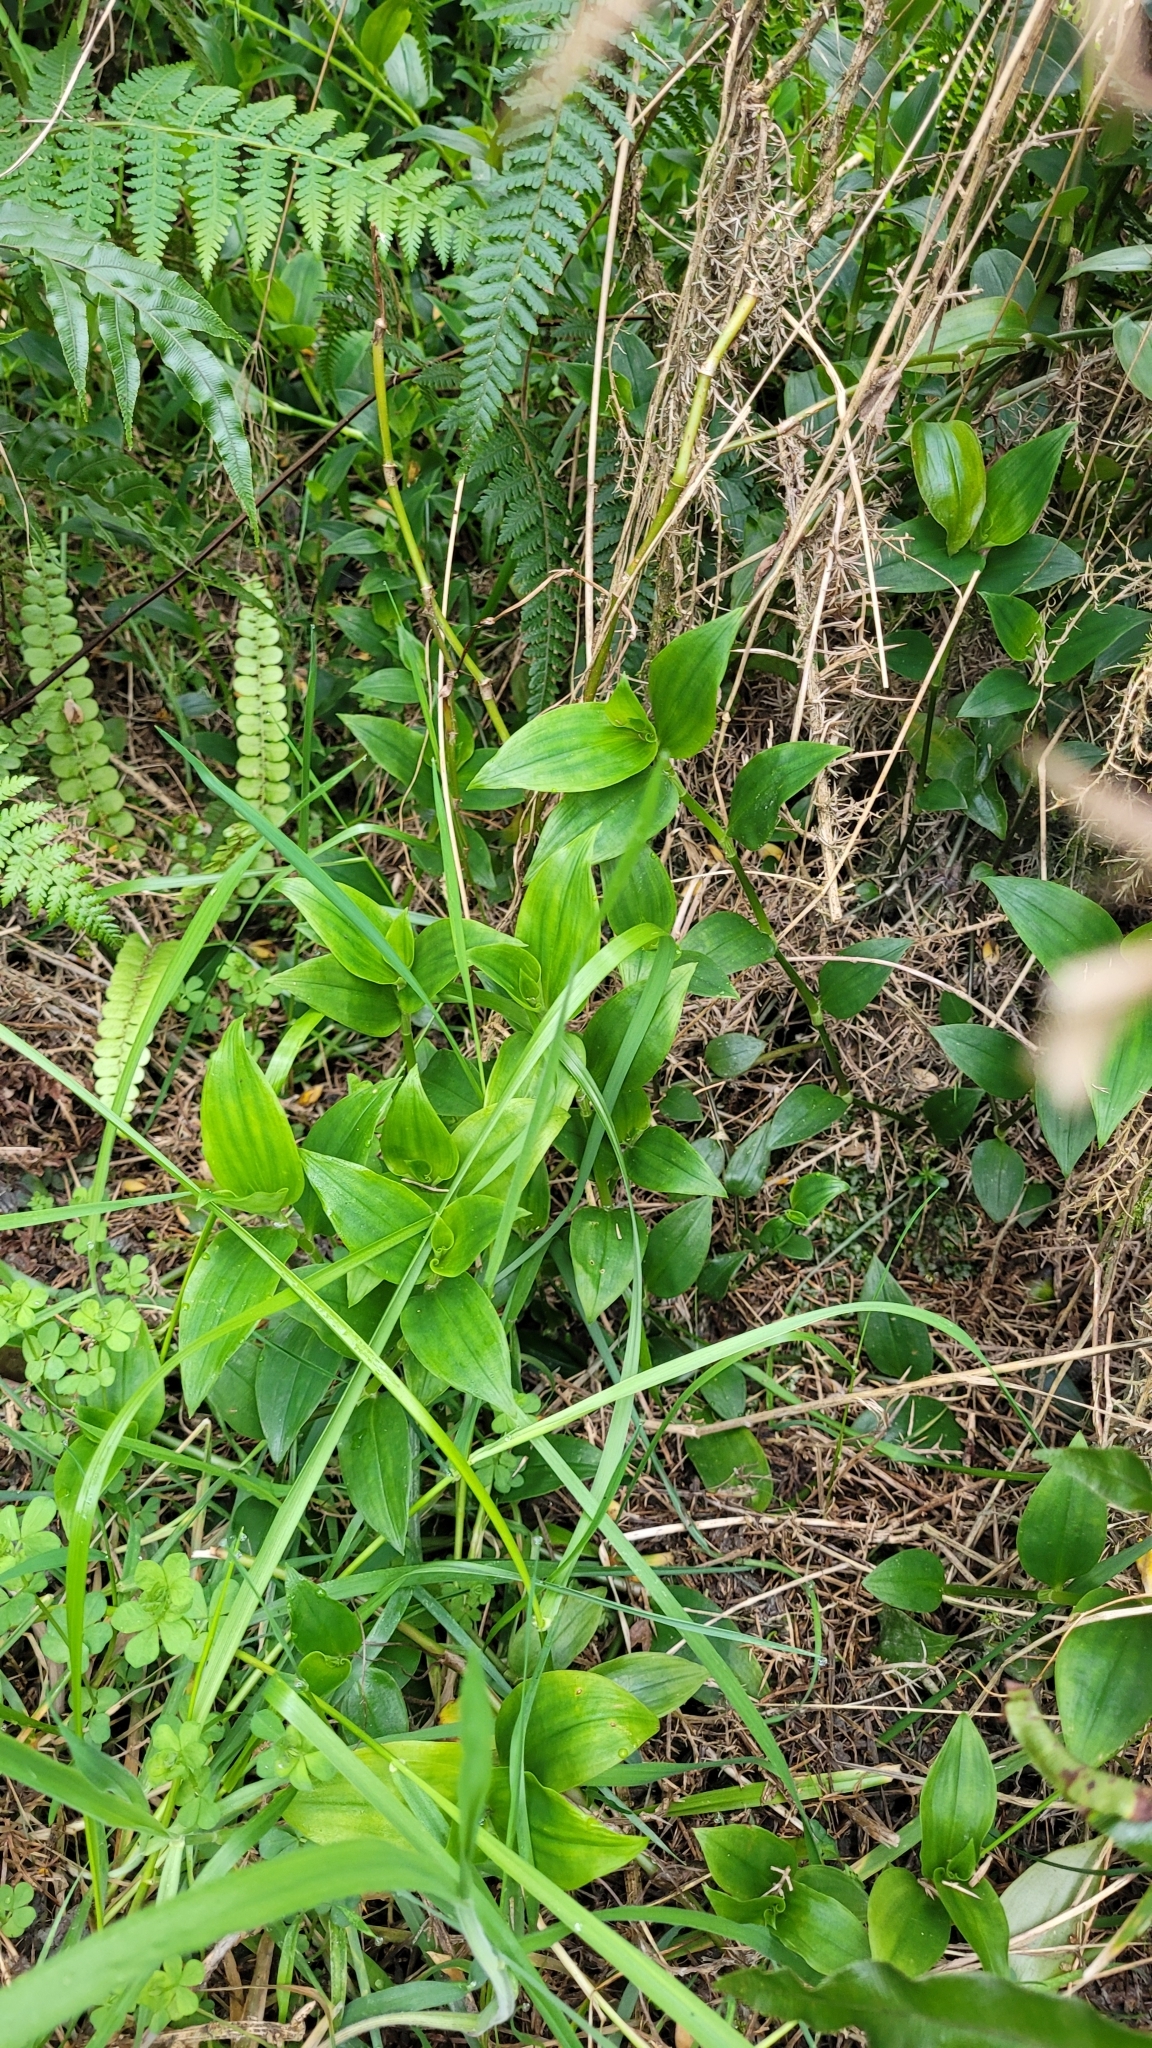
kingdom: Plantae
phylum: Tracheophyta
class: Liliopsida
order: Commelinales
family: Commelinaceae
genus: Tradescantia
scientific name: Tradescantia fluminensis
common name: Wandering-jew
